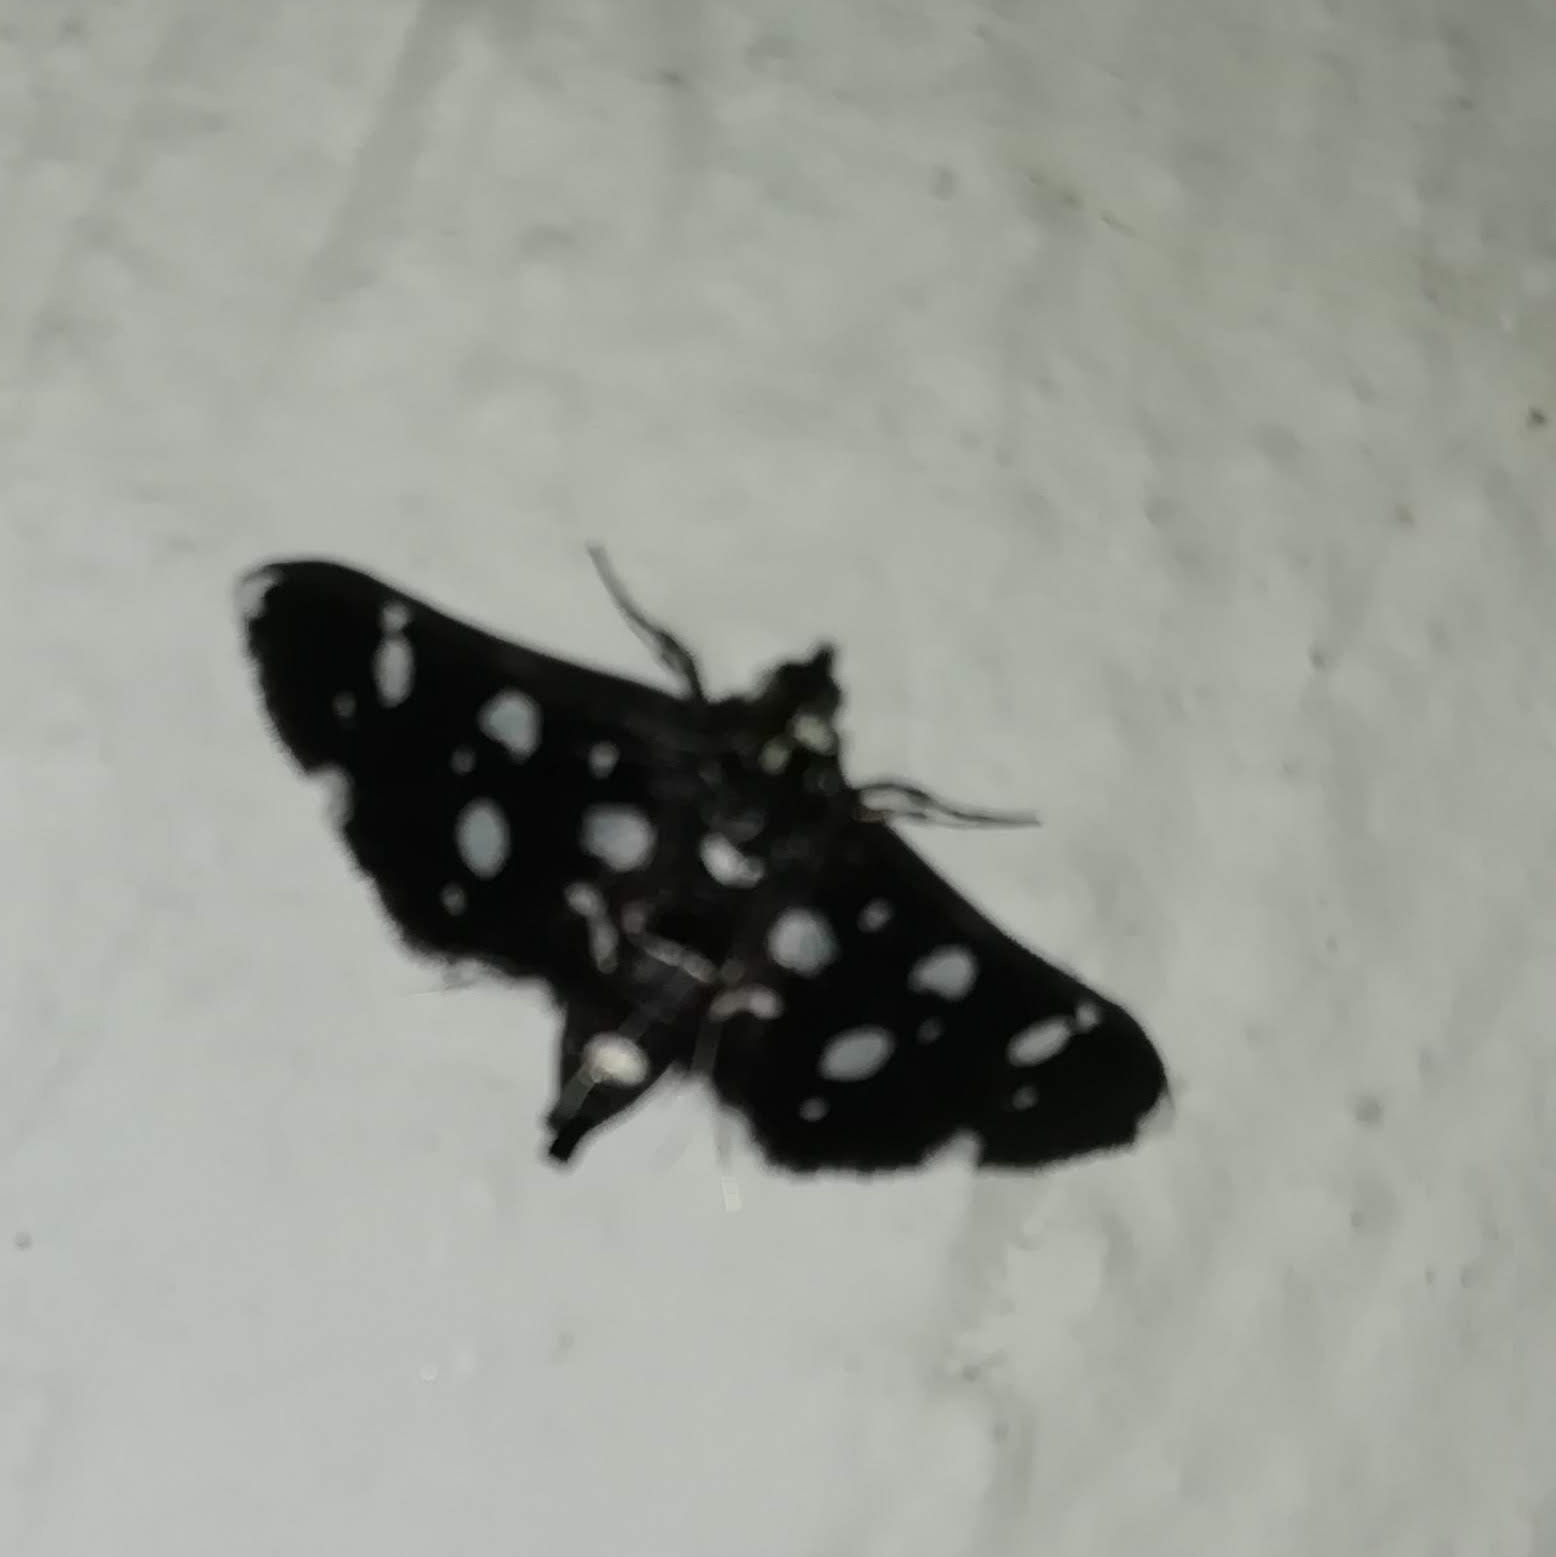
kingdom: Animalia
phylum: Arthropoda
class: Insecta
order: Lepidoptera
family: Crambidae
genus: Bocchoris
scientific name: Bocchoris inspersalis
